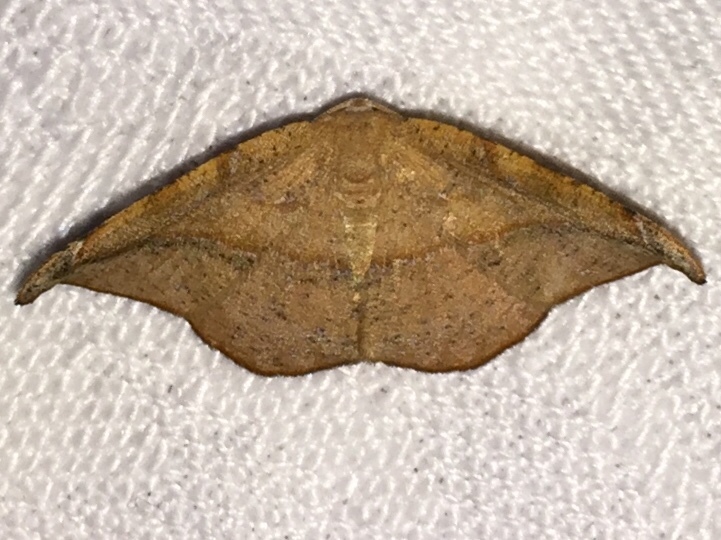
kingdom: Animalia
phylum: Arthropoda
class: Insecta
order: Lepidoptera
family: Geometridae
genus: Patalene
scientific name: Patalene olyzonaria
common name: Juniper geometer moth
